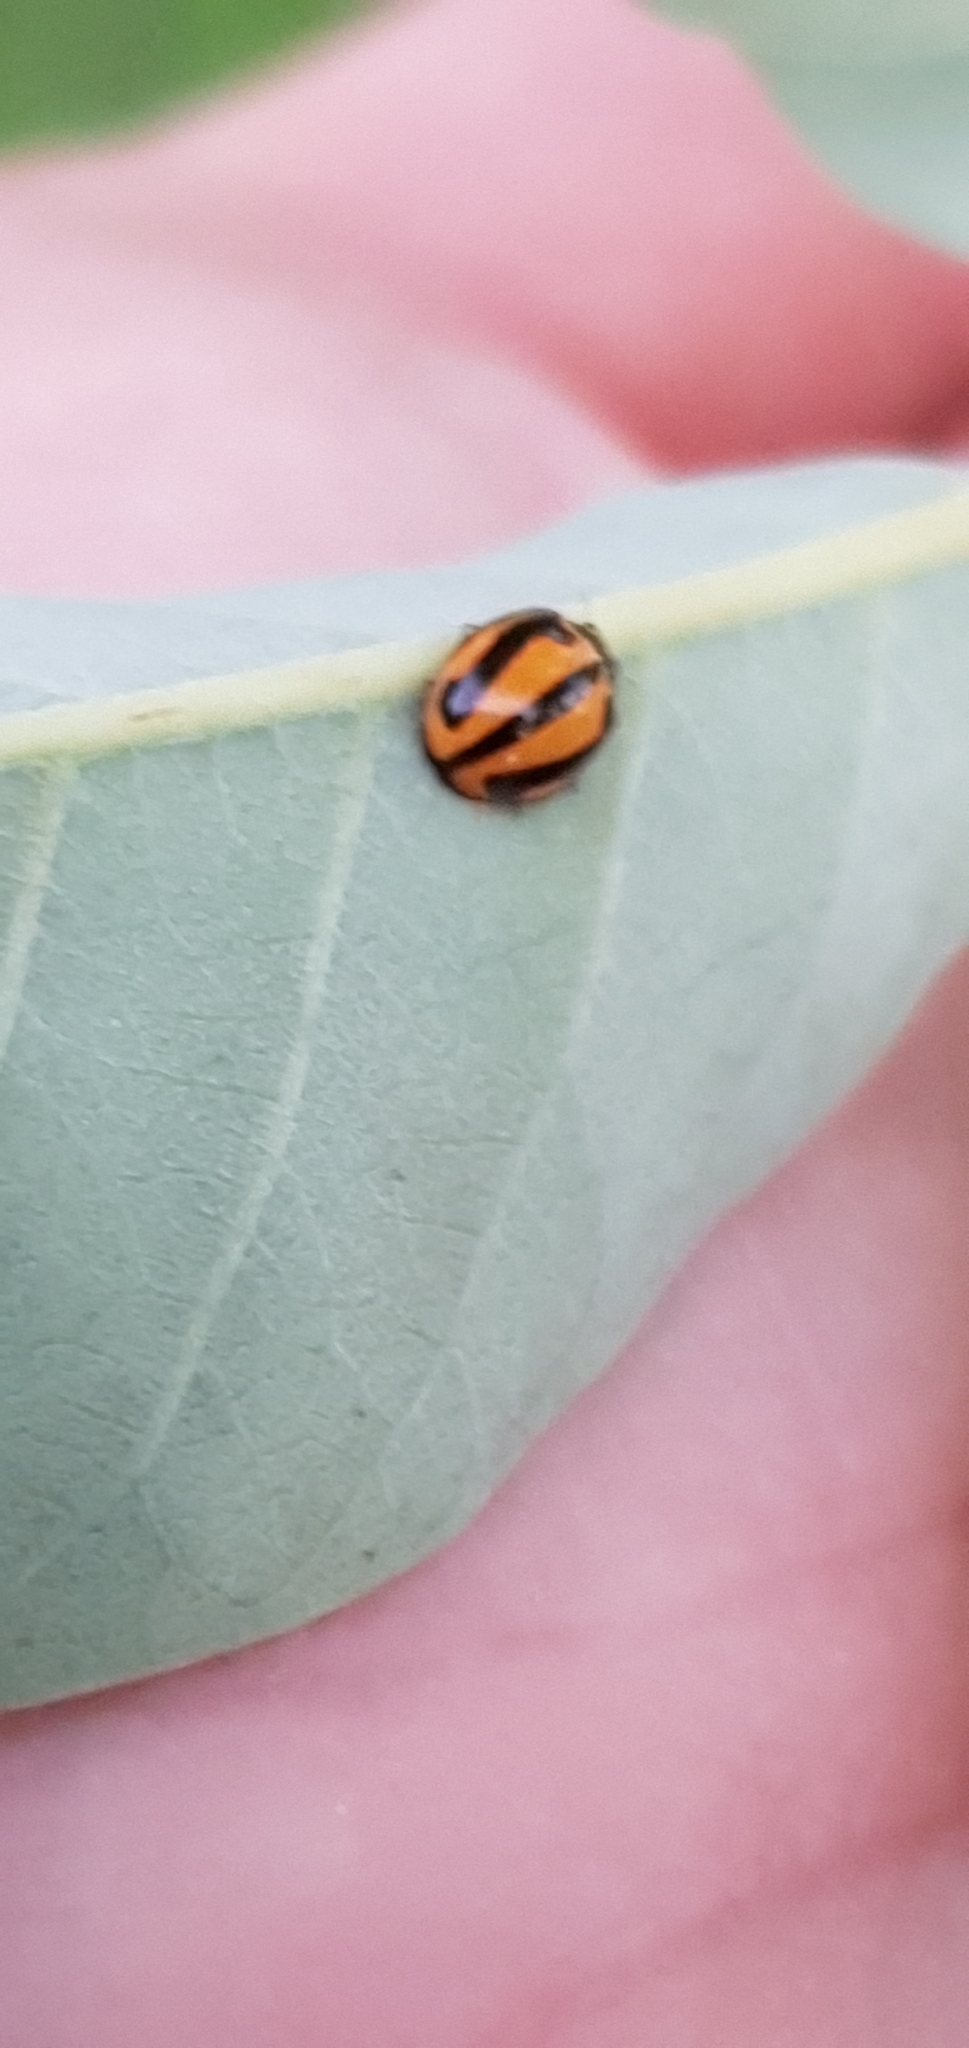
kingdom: Animalia
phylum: Arthropoda
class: Insecta
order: Coleoptera
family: Coccinellidae
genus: Micraspis
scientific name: Micraspis frenata
